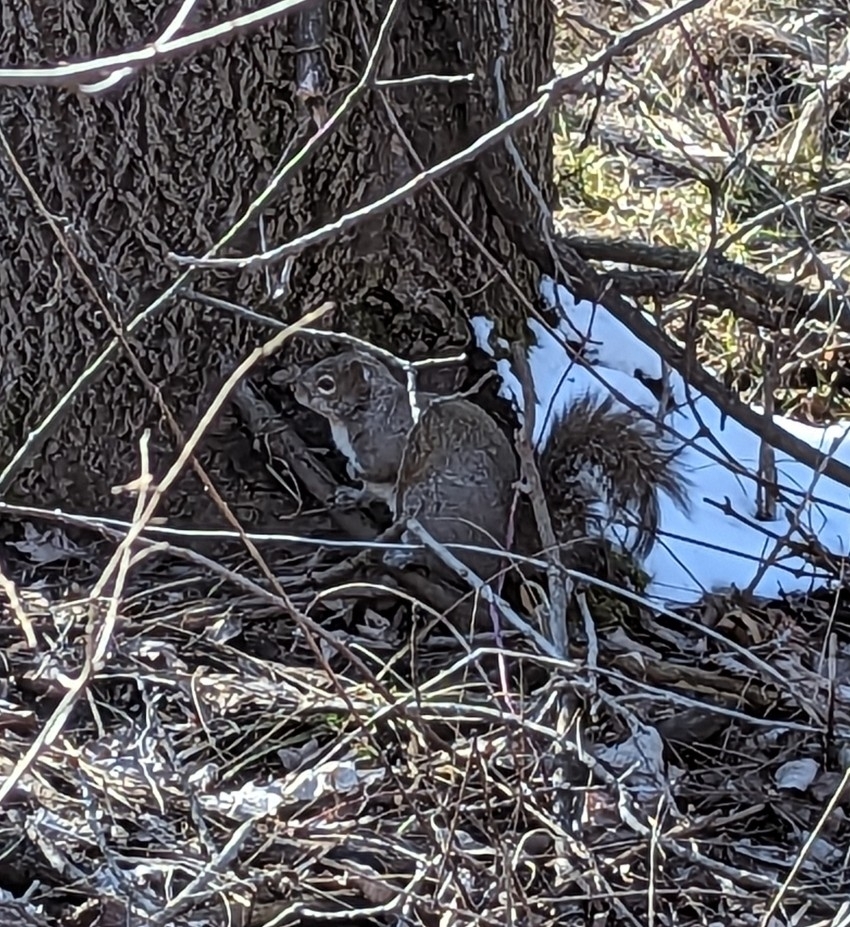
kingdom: Animalia
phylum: Chordata
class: Mammalia
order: Rodentia
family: Sciuridae
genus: Sciurus
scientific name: Sciurus carolinensis
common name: Eastern gray squirrel
